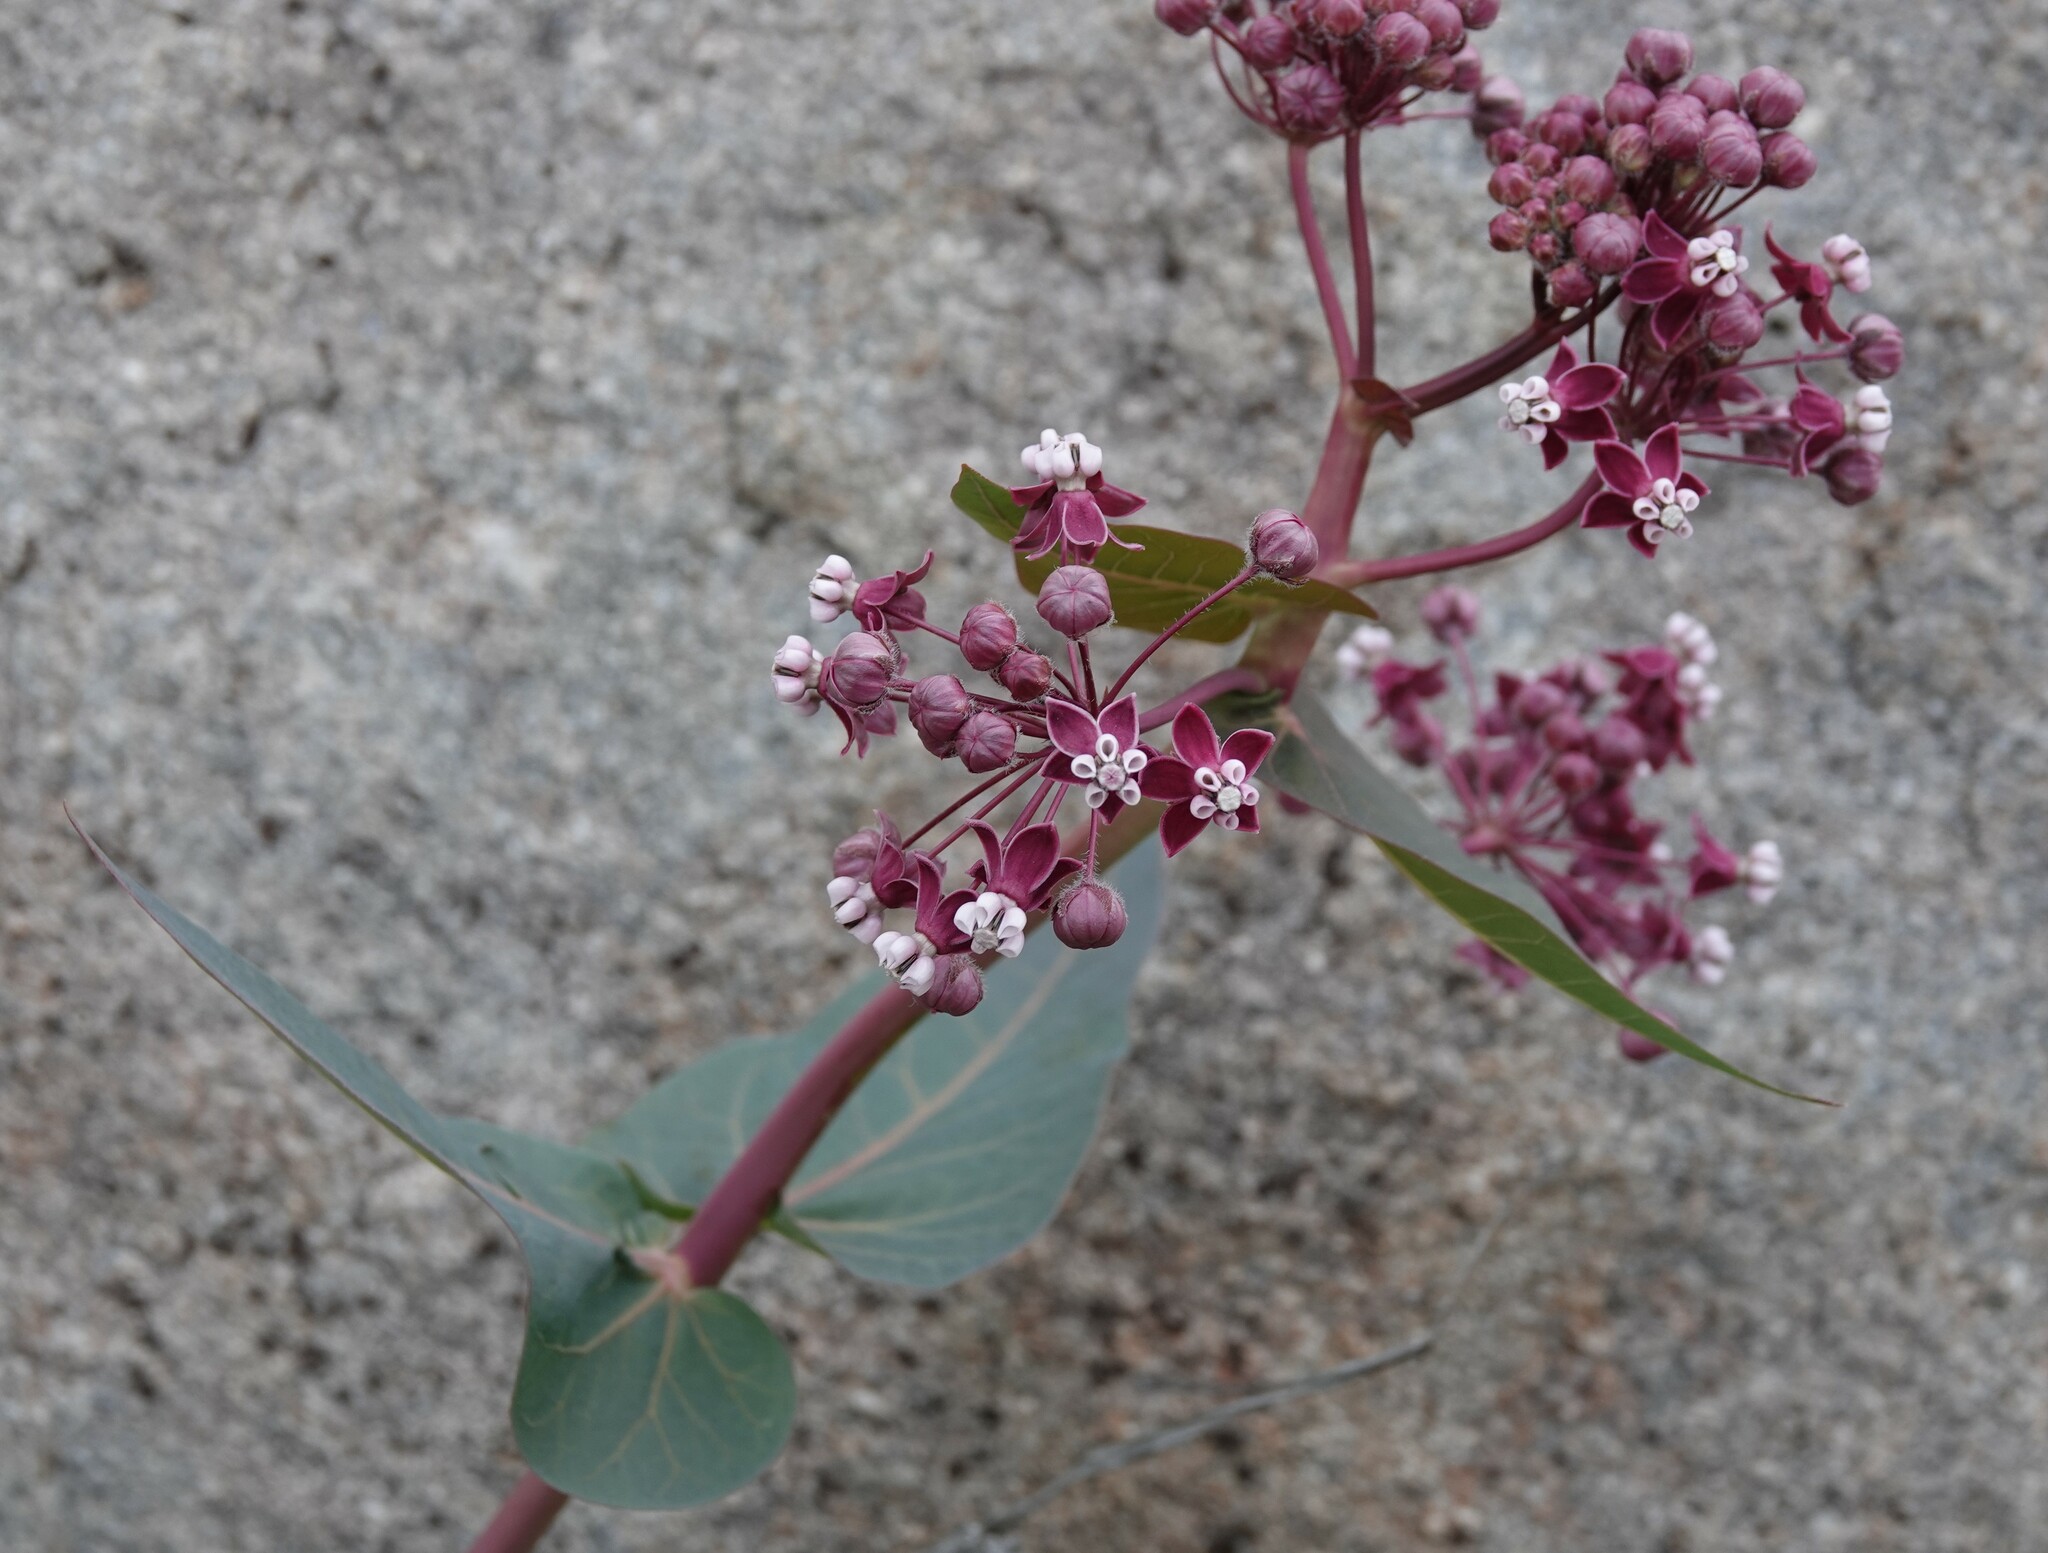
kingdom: Plantae
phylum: Tracheophyta
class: Magnoliopsida
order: Gentianales
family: Apocynaceae
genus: Asclepias
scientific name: Asclepias cordifolia
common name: Purple milkweed
